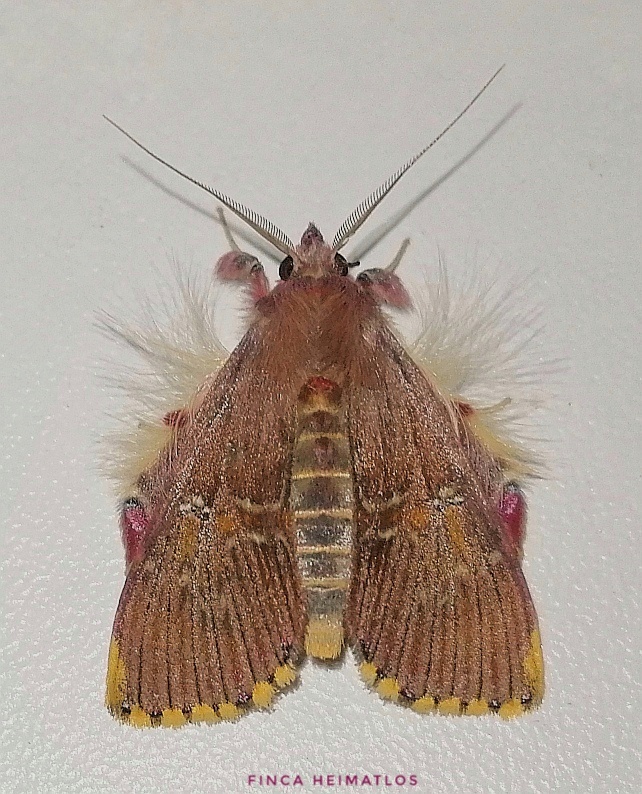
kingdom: Animalia
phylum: Arthropoda
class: Insecta
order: Lepidoptera
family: Erebidae
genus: Sosxetra
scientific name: Sosxetra grata
